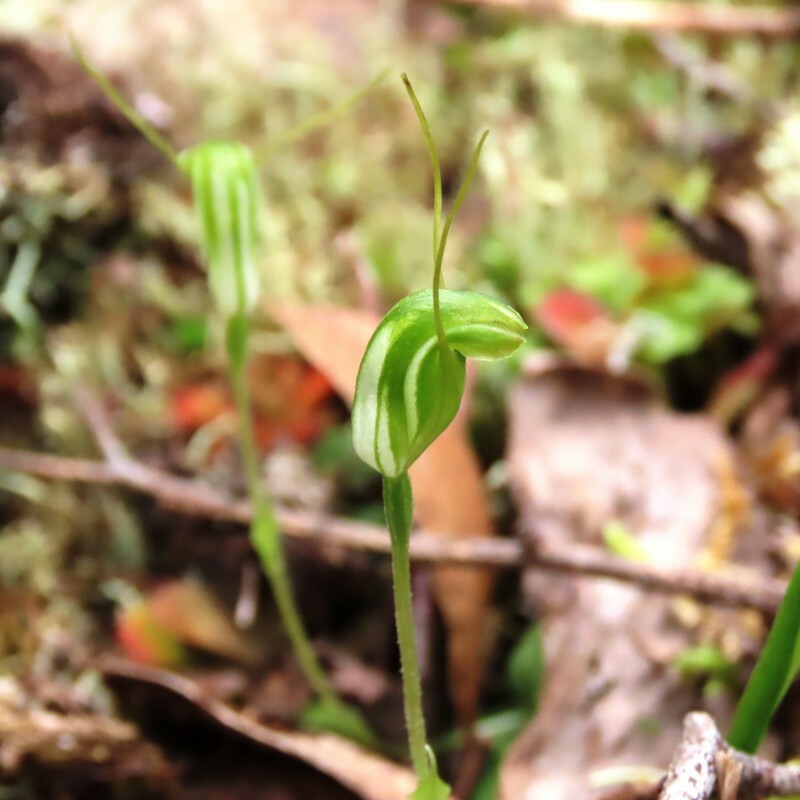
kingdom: Plantae
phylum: Tracheophyta
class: Liliopsida
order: Asparagales
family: Orchidaceae
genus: Pterostylis
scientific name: Pterostylis nana
